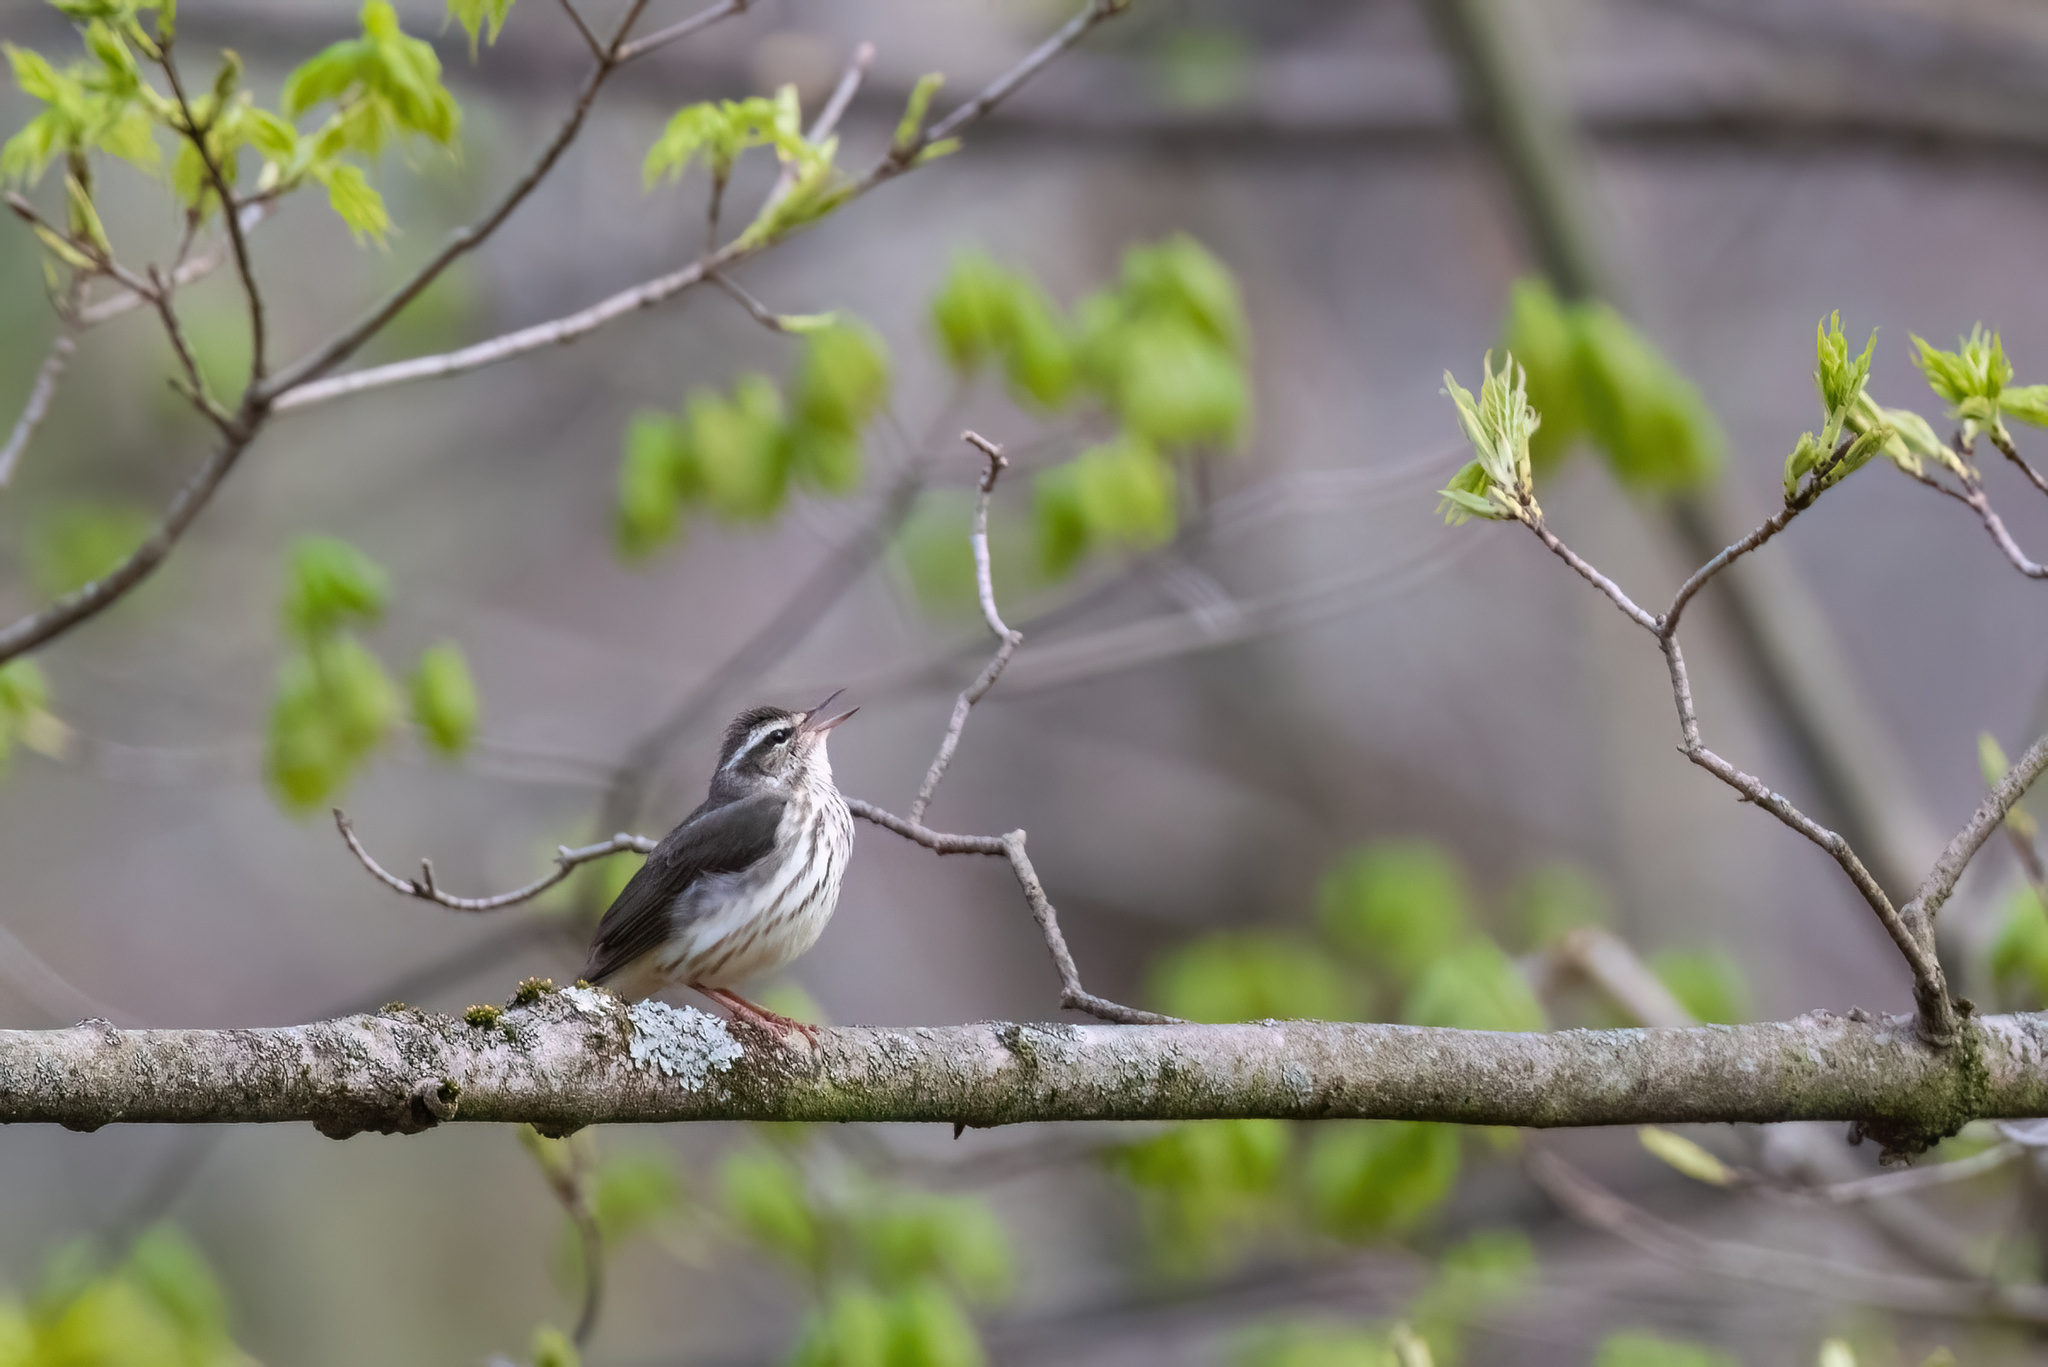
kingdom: Animalia
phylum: Chordata
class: Aves
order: Passeriformes
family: Parulidae
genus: Parkesia
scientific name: Parkesia motacilla
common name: Louisiana waterthrush
